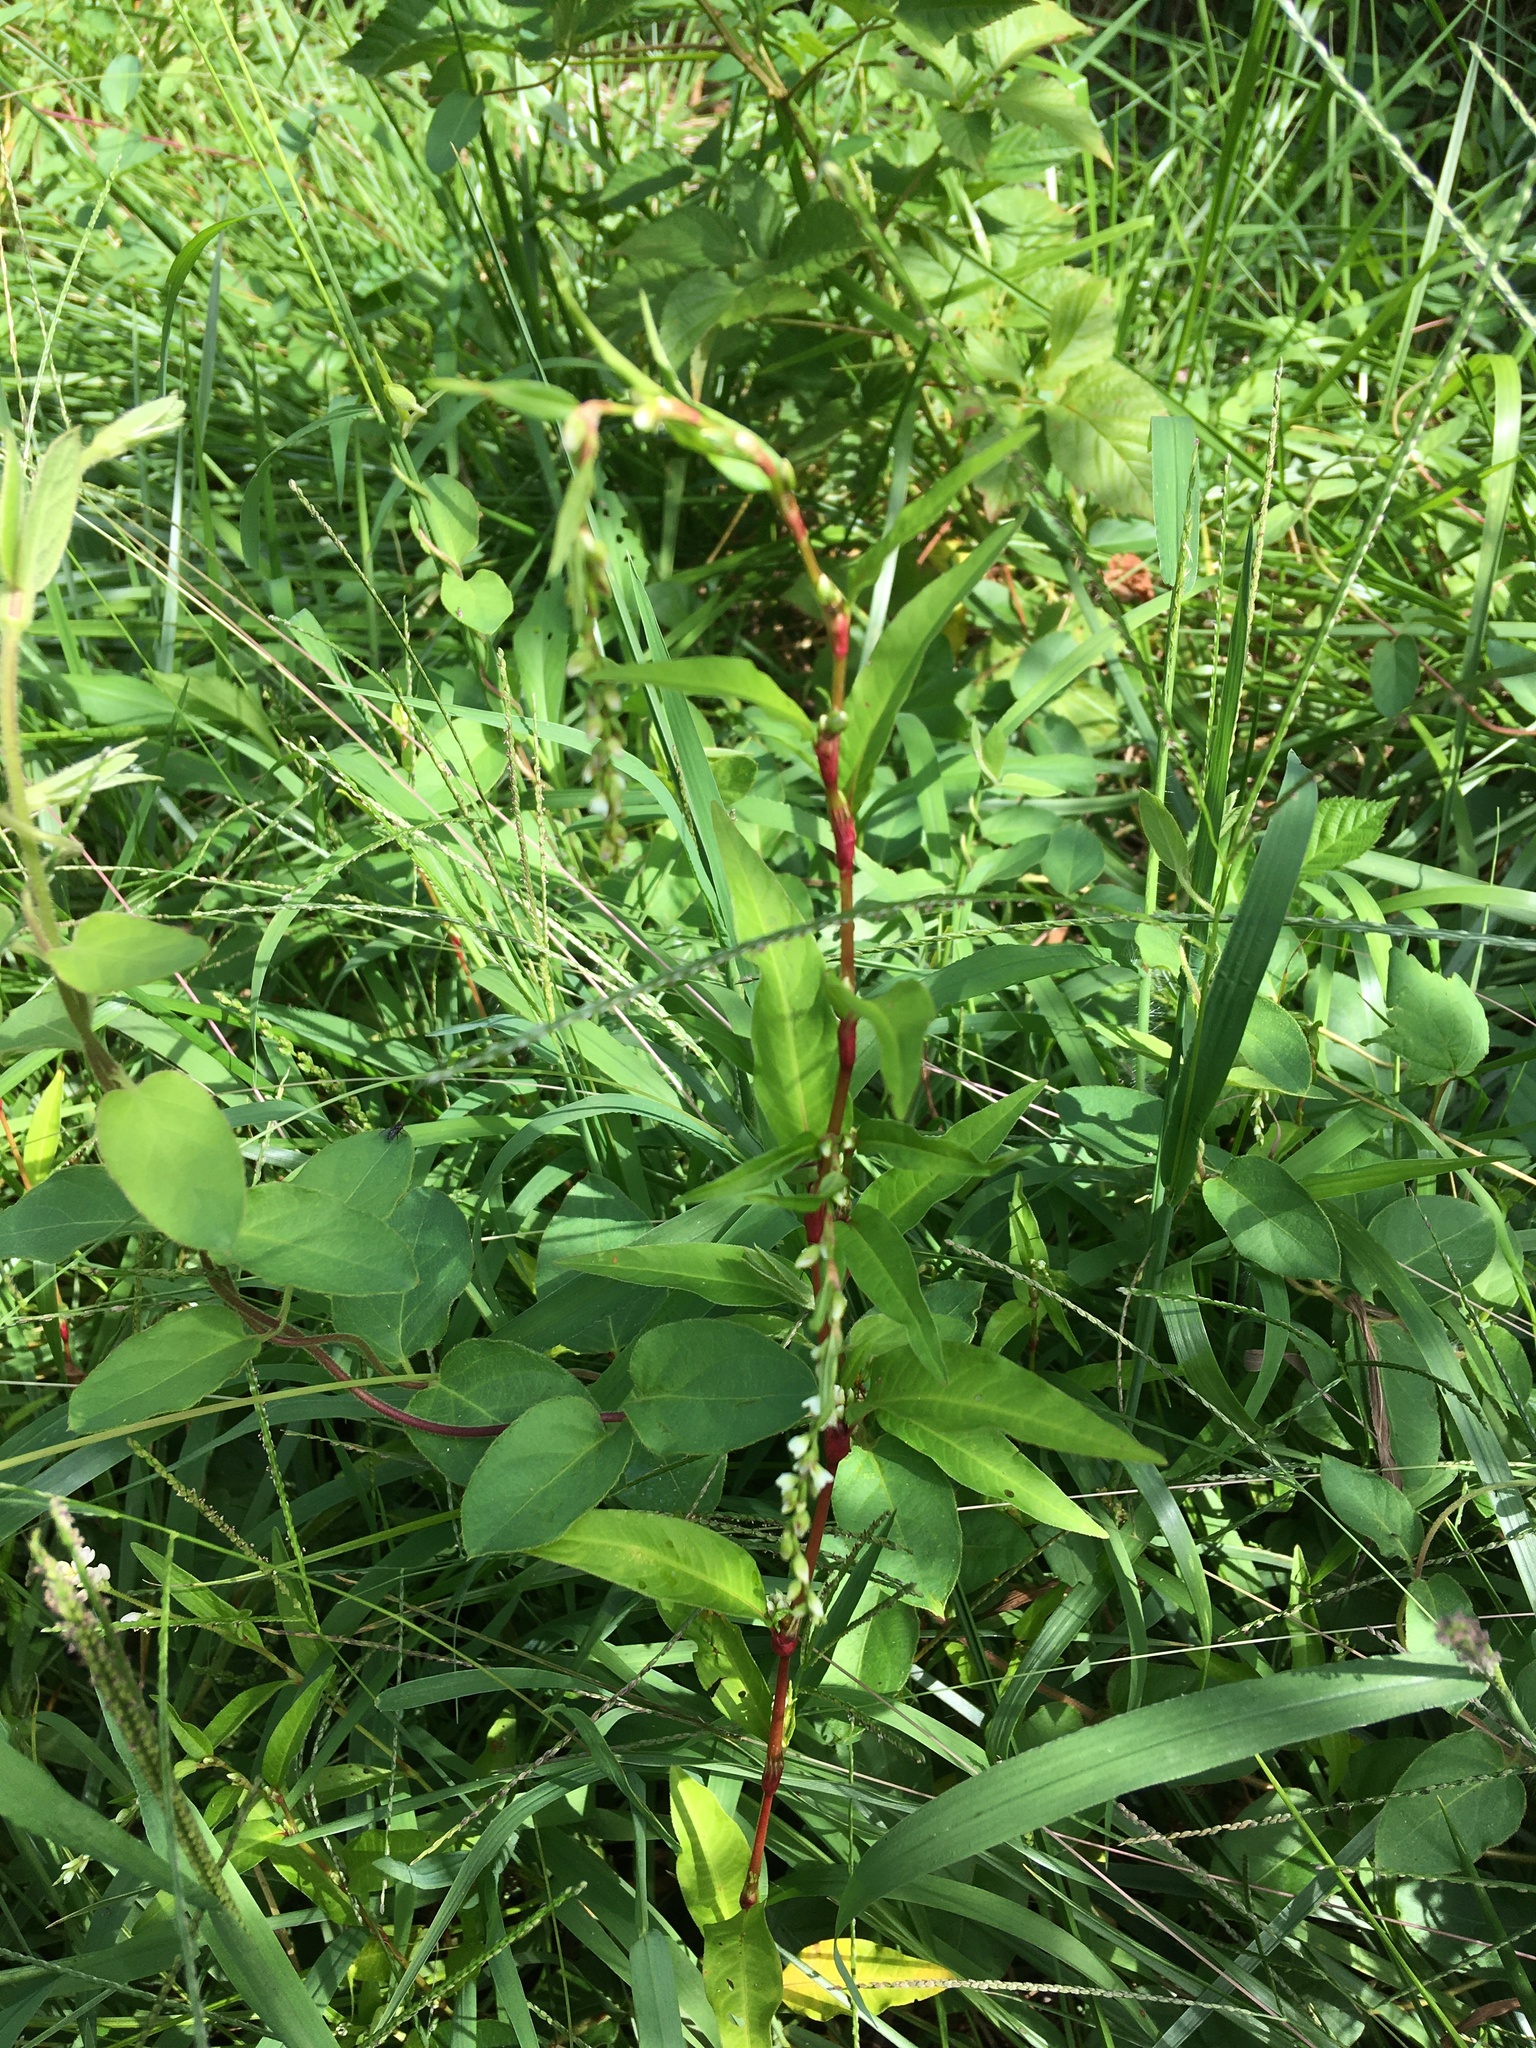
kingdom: Plantae
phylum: Tracheophyta
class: Magnoliopsida
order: Caryophyllales
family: Polygonaceae
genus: Persicaria
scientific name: Persicaria hydropiper
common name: Water-pepper
